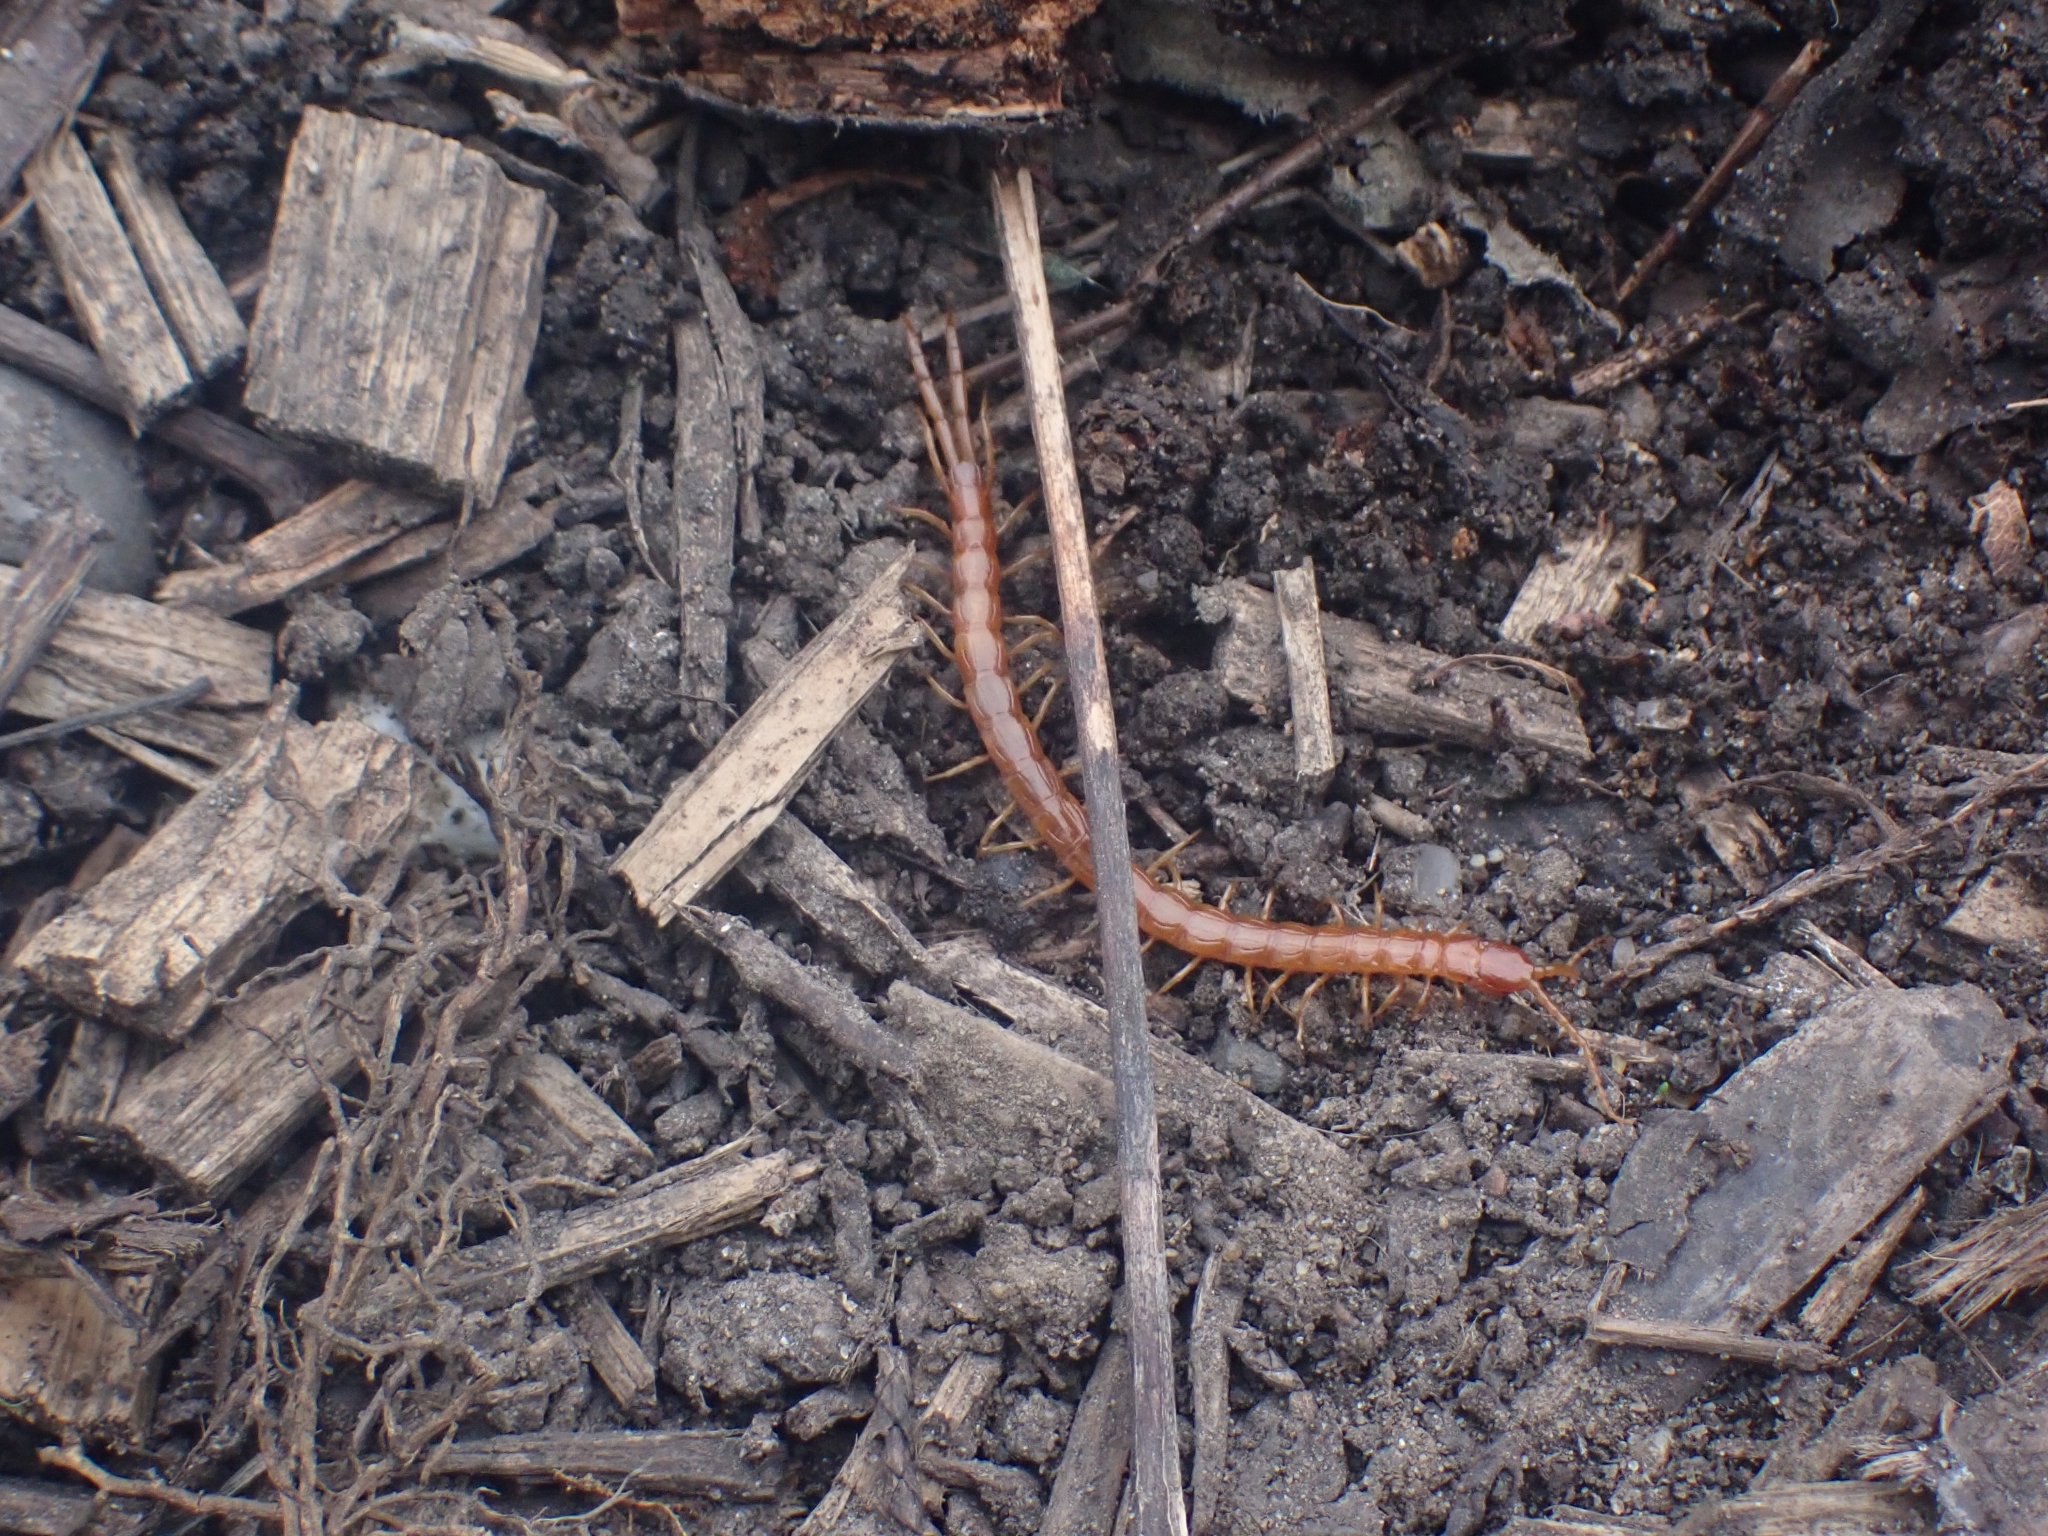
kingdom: Animalia
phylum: Arthropoda
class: Chilopoda
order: Scolopendromorpha
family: Cryptopidae
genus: Cryptops
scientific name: Cryptops anomalans
